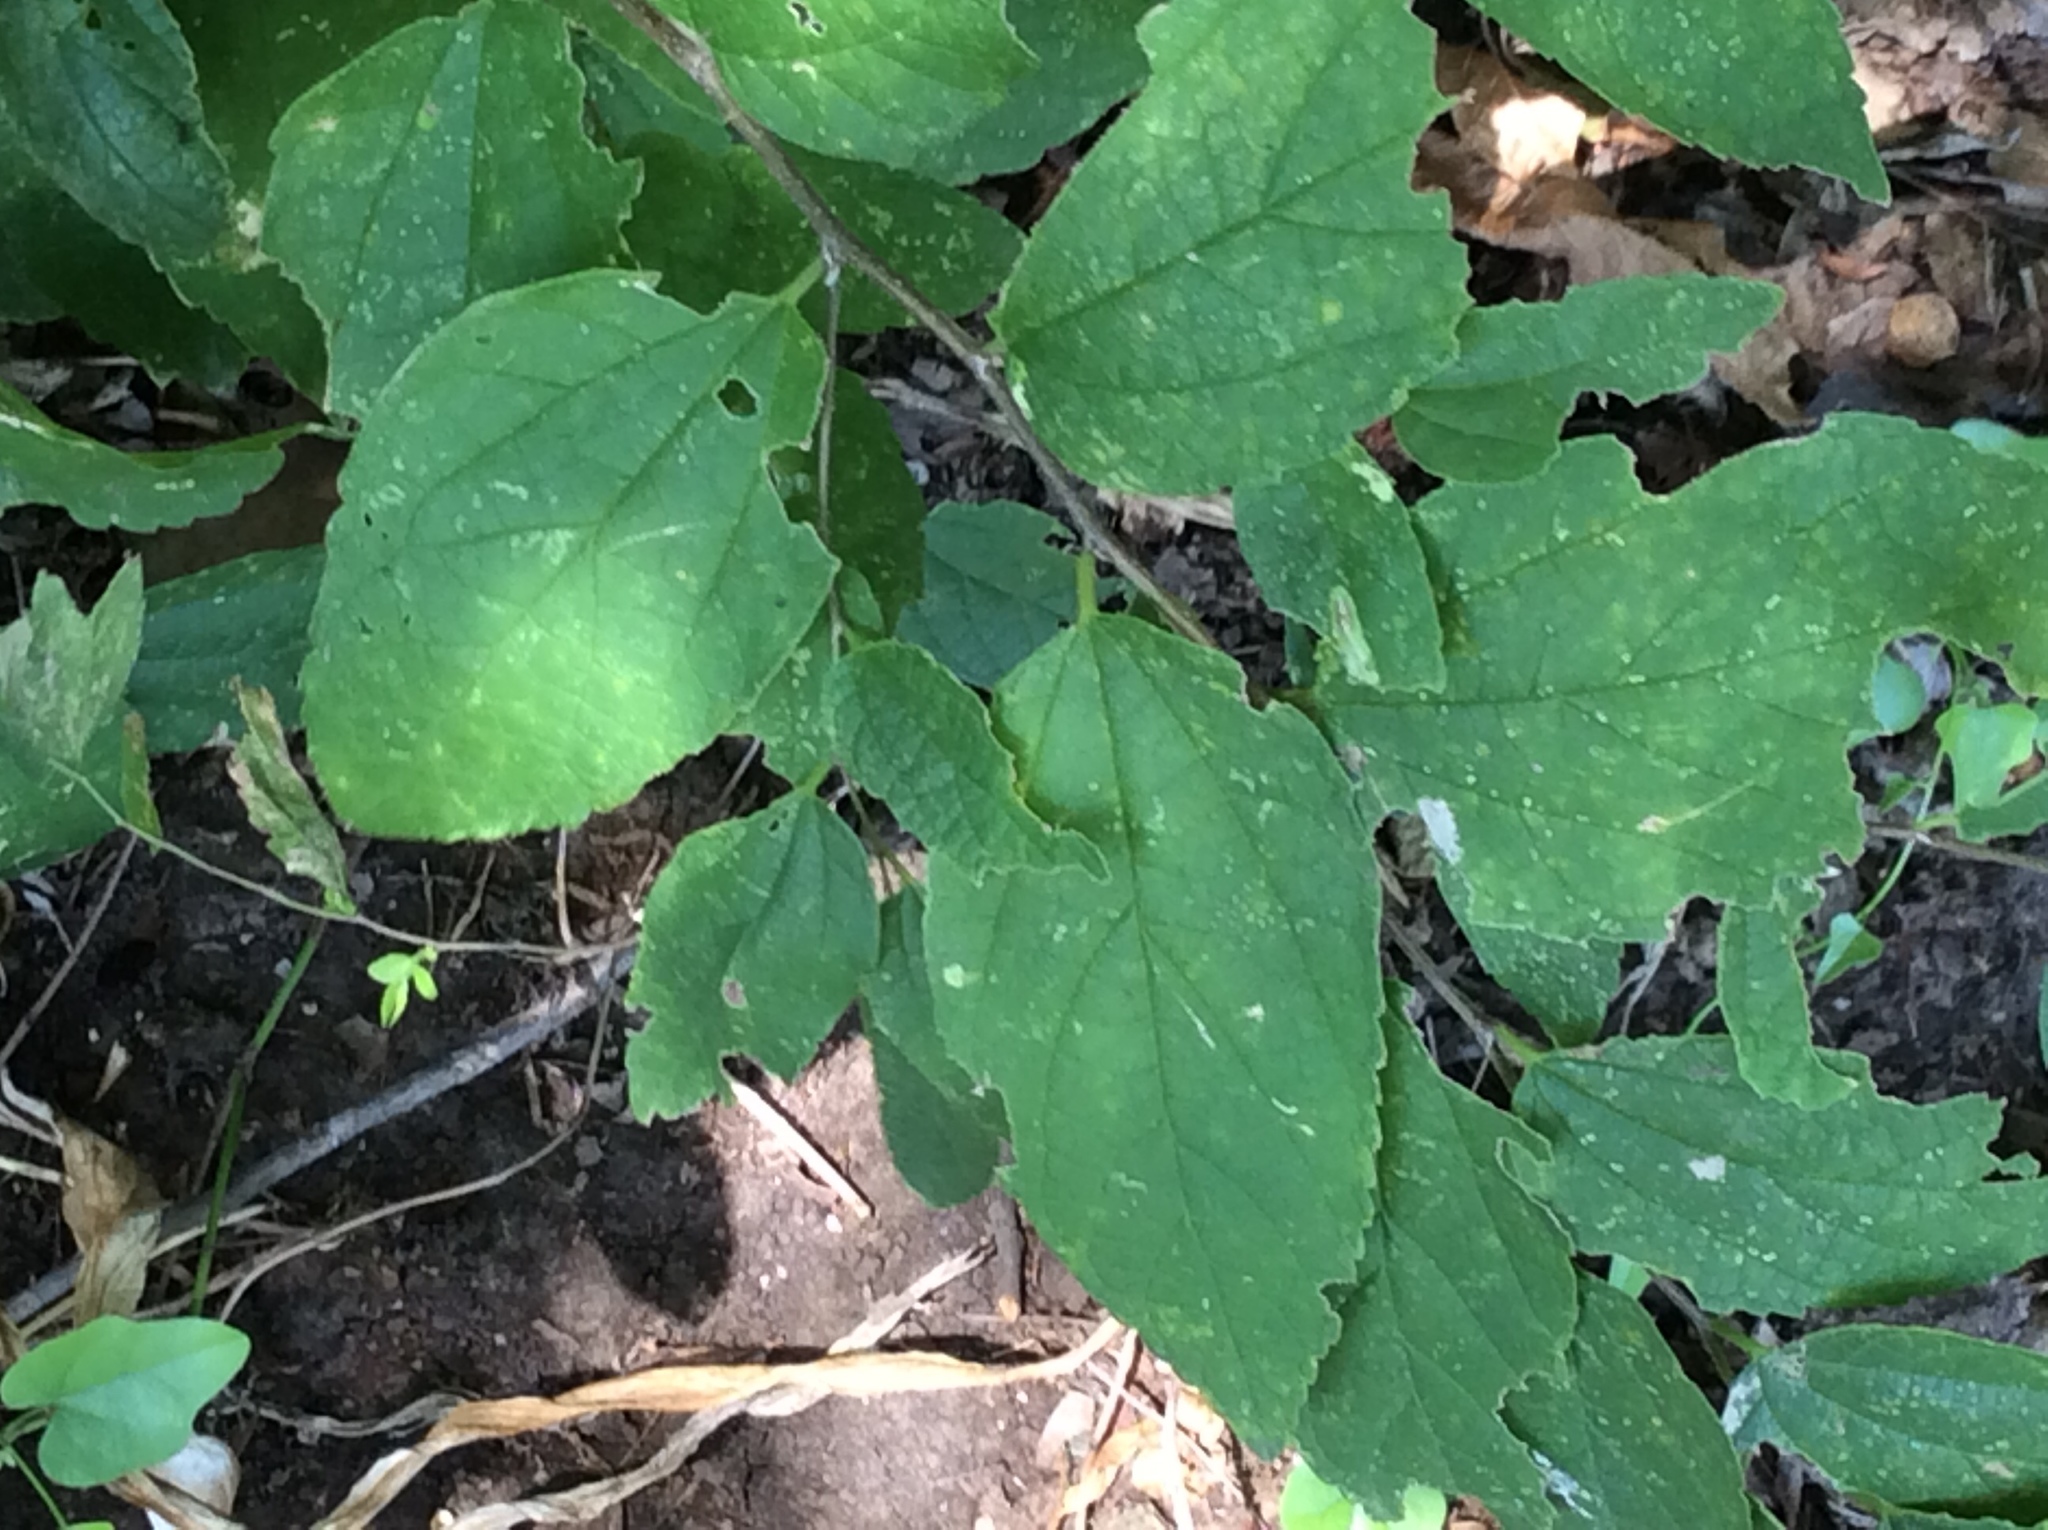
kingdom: Plantae
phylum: Tracheophyta
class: Magnoliopsida
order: Rosales
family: Cannabaceae
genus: Celtis
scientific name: Celtis laevigata
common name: Sugarberry
